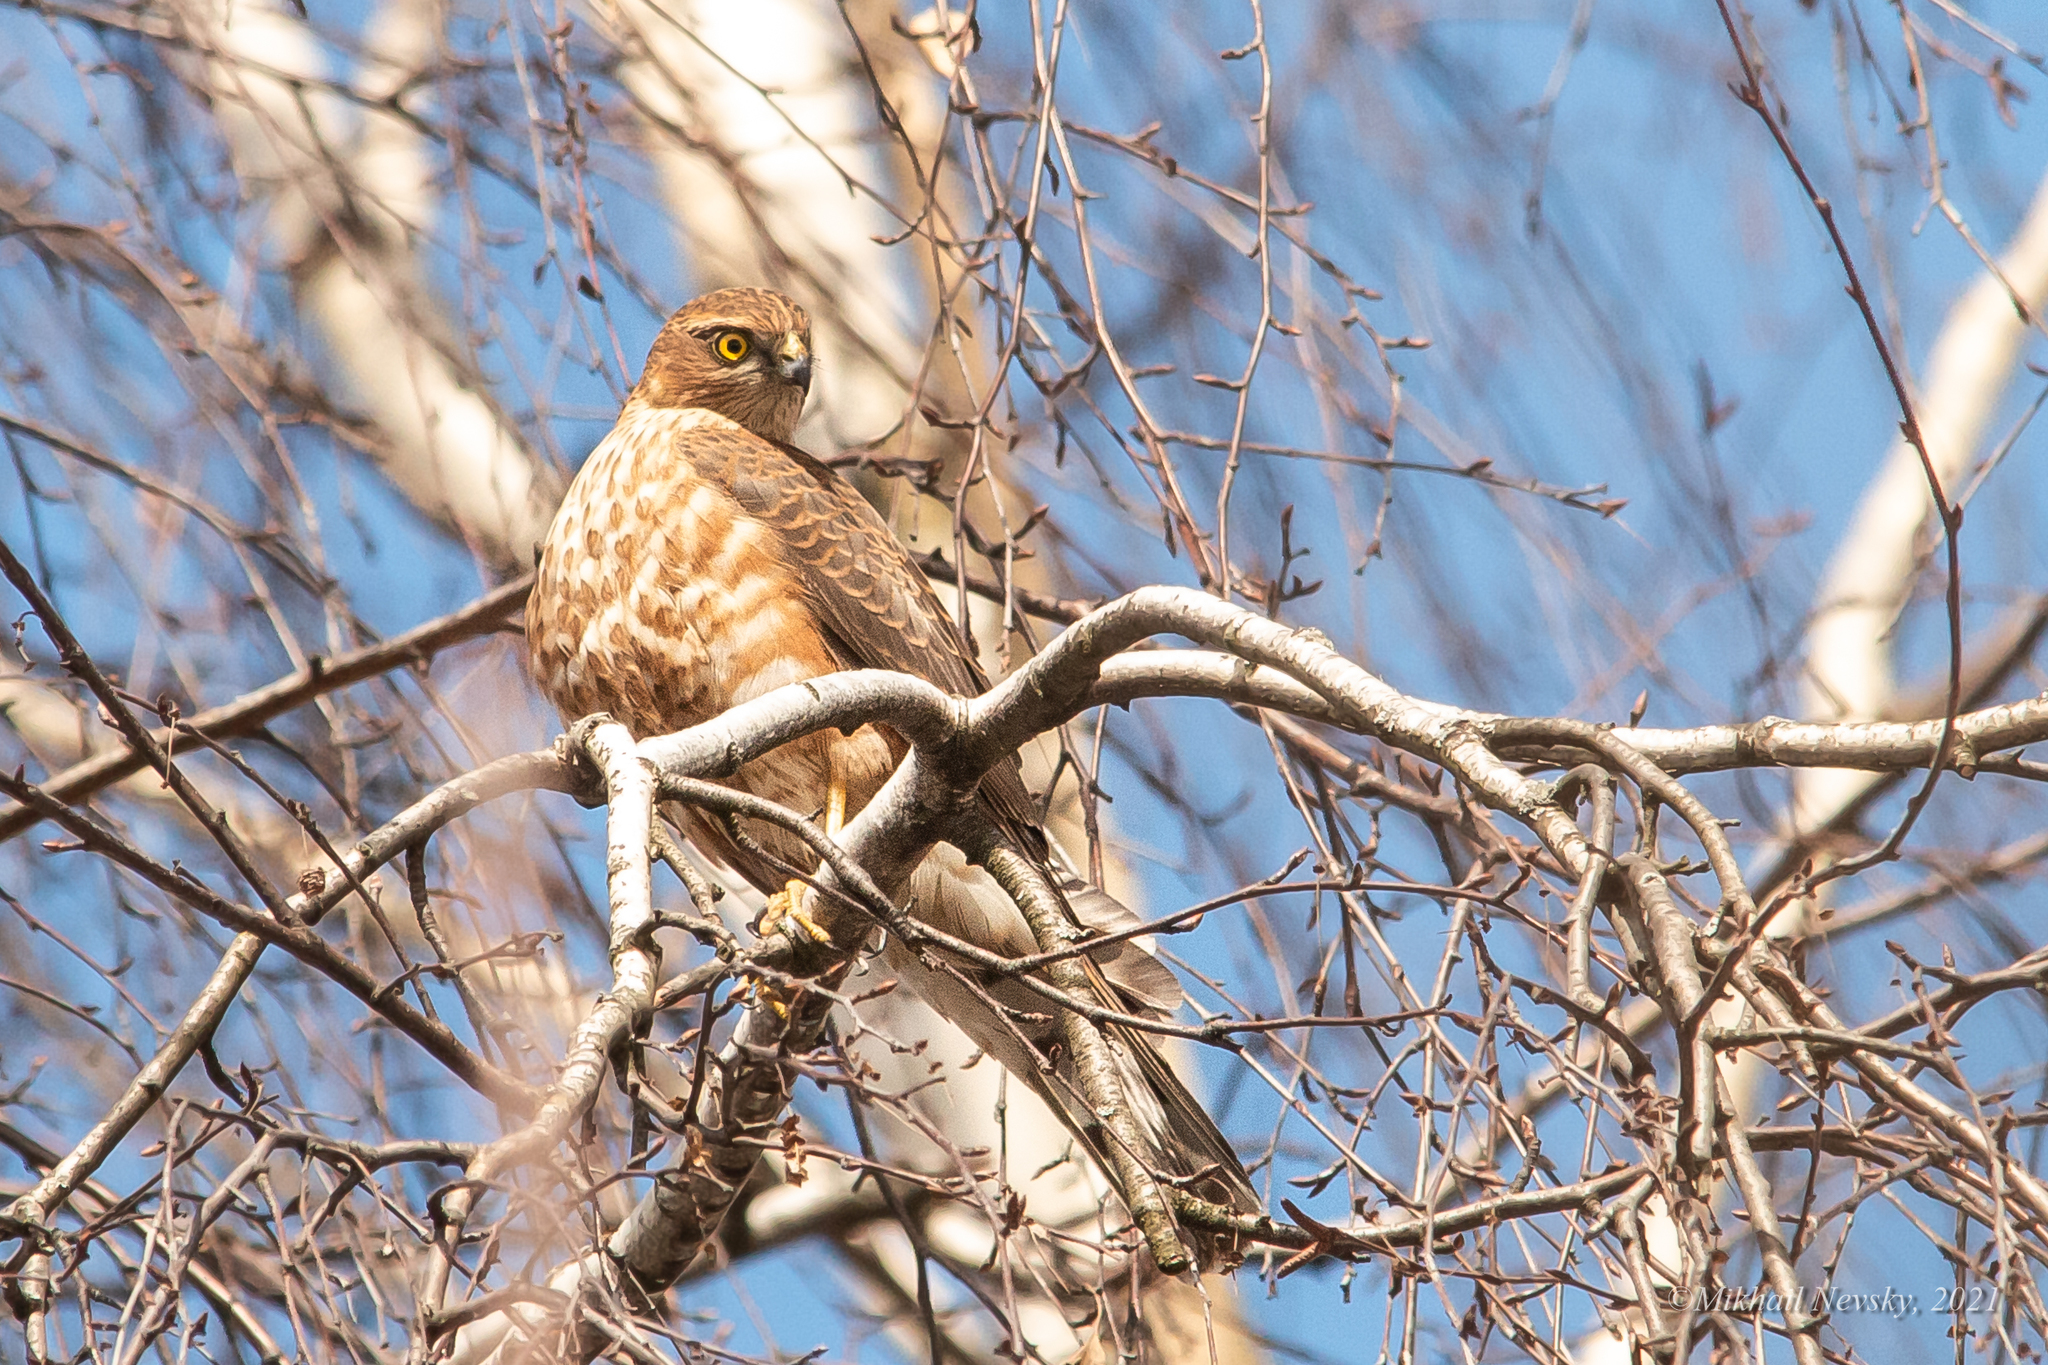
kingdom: Animalia
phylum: Chordata
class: Aves
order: Accipitriformes
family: Accipitridae
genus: Accipiter
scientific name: Accipiter nisus
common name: Eurasian sparrowhawk
